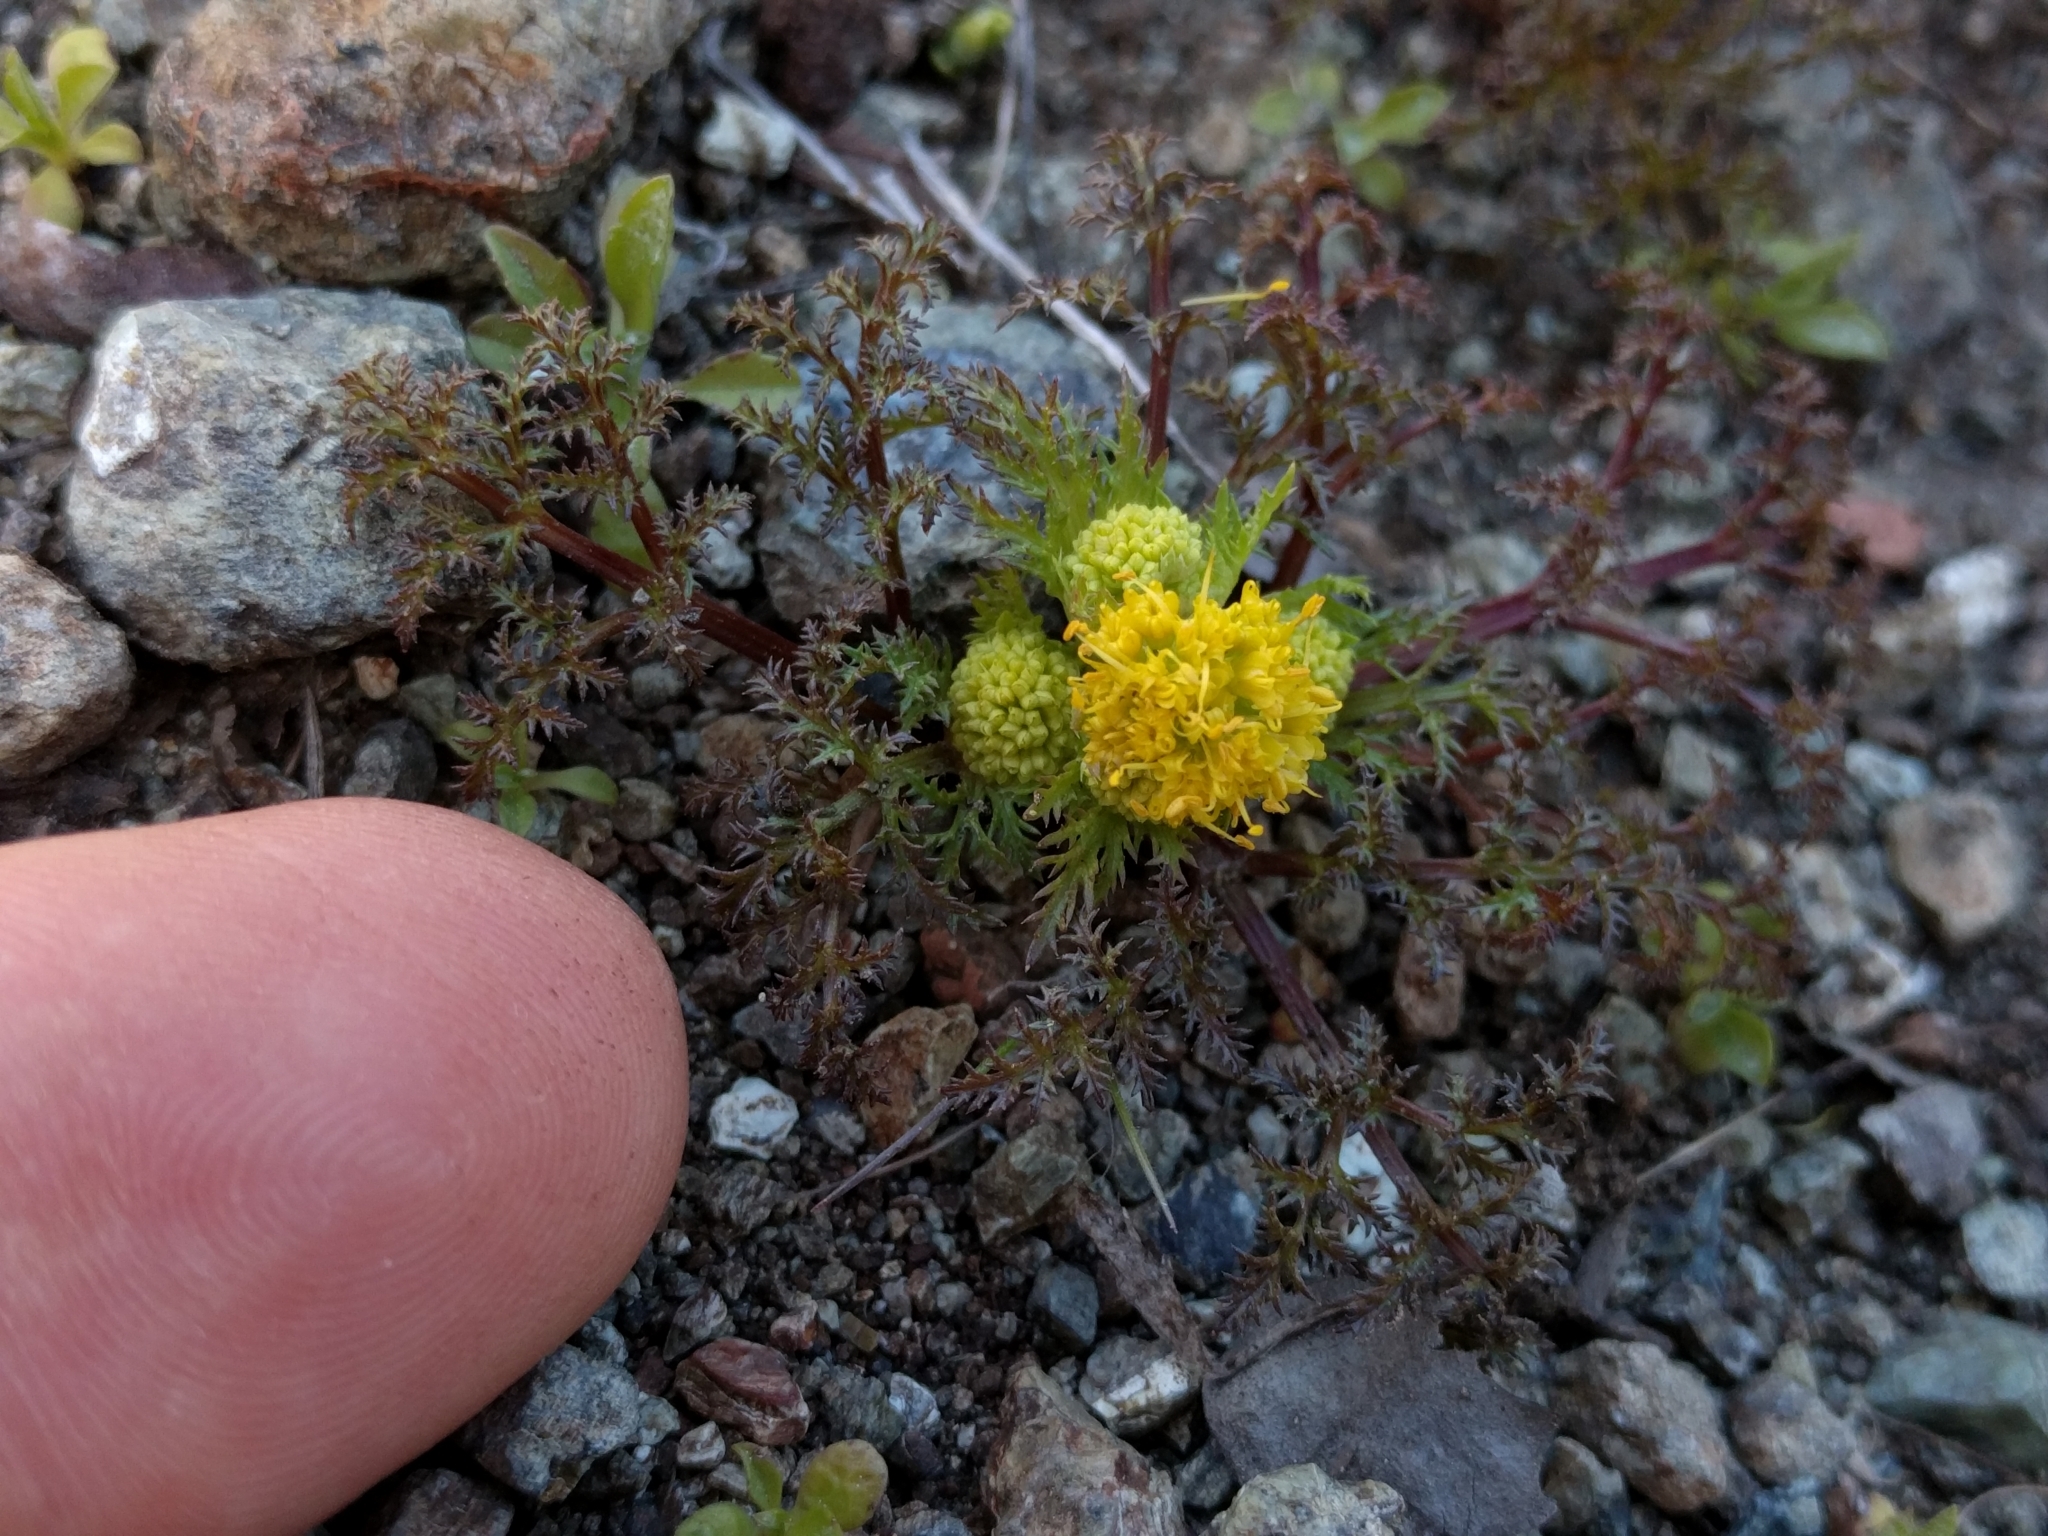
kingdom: Plantae
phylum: Tracheophyta
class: Magnoliopsida
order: Apiales
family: Apiaceae
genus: Sanicula
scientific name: Sanicula tuberosa
